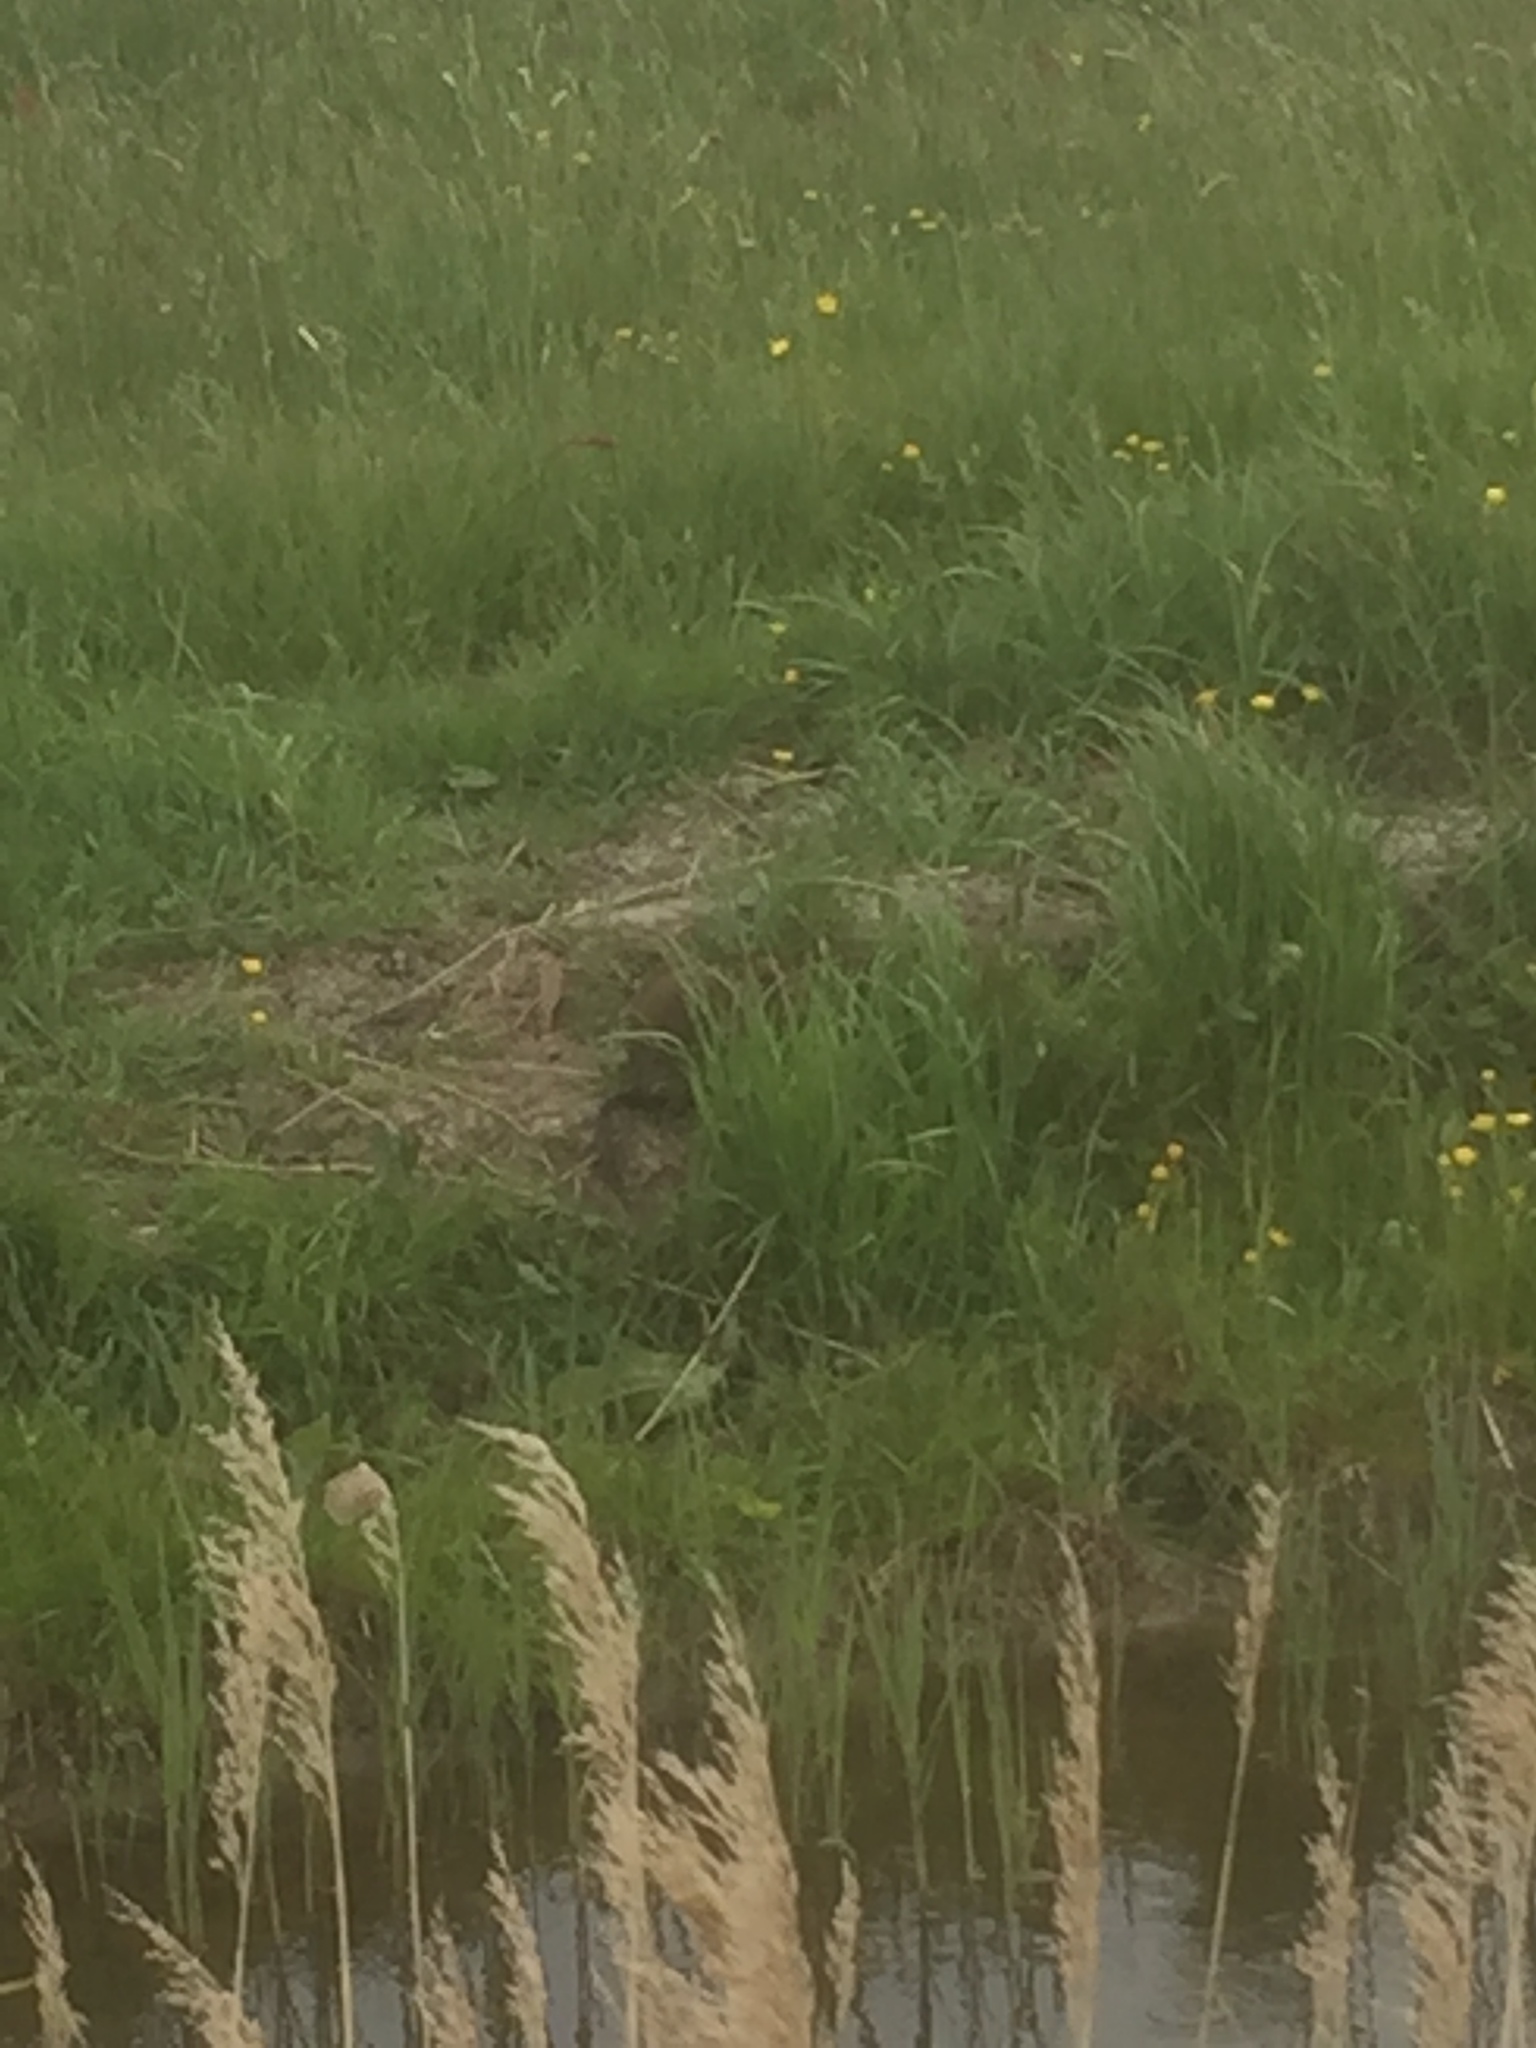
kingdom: Animalia
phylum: Chordata
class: Mammalia
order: Rodentia
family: Cricetidae
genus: Ondatra
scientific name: Ondatra zibethicus
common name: Muskrat
